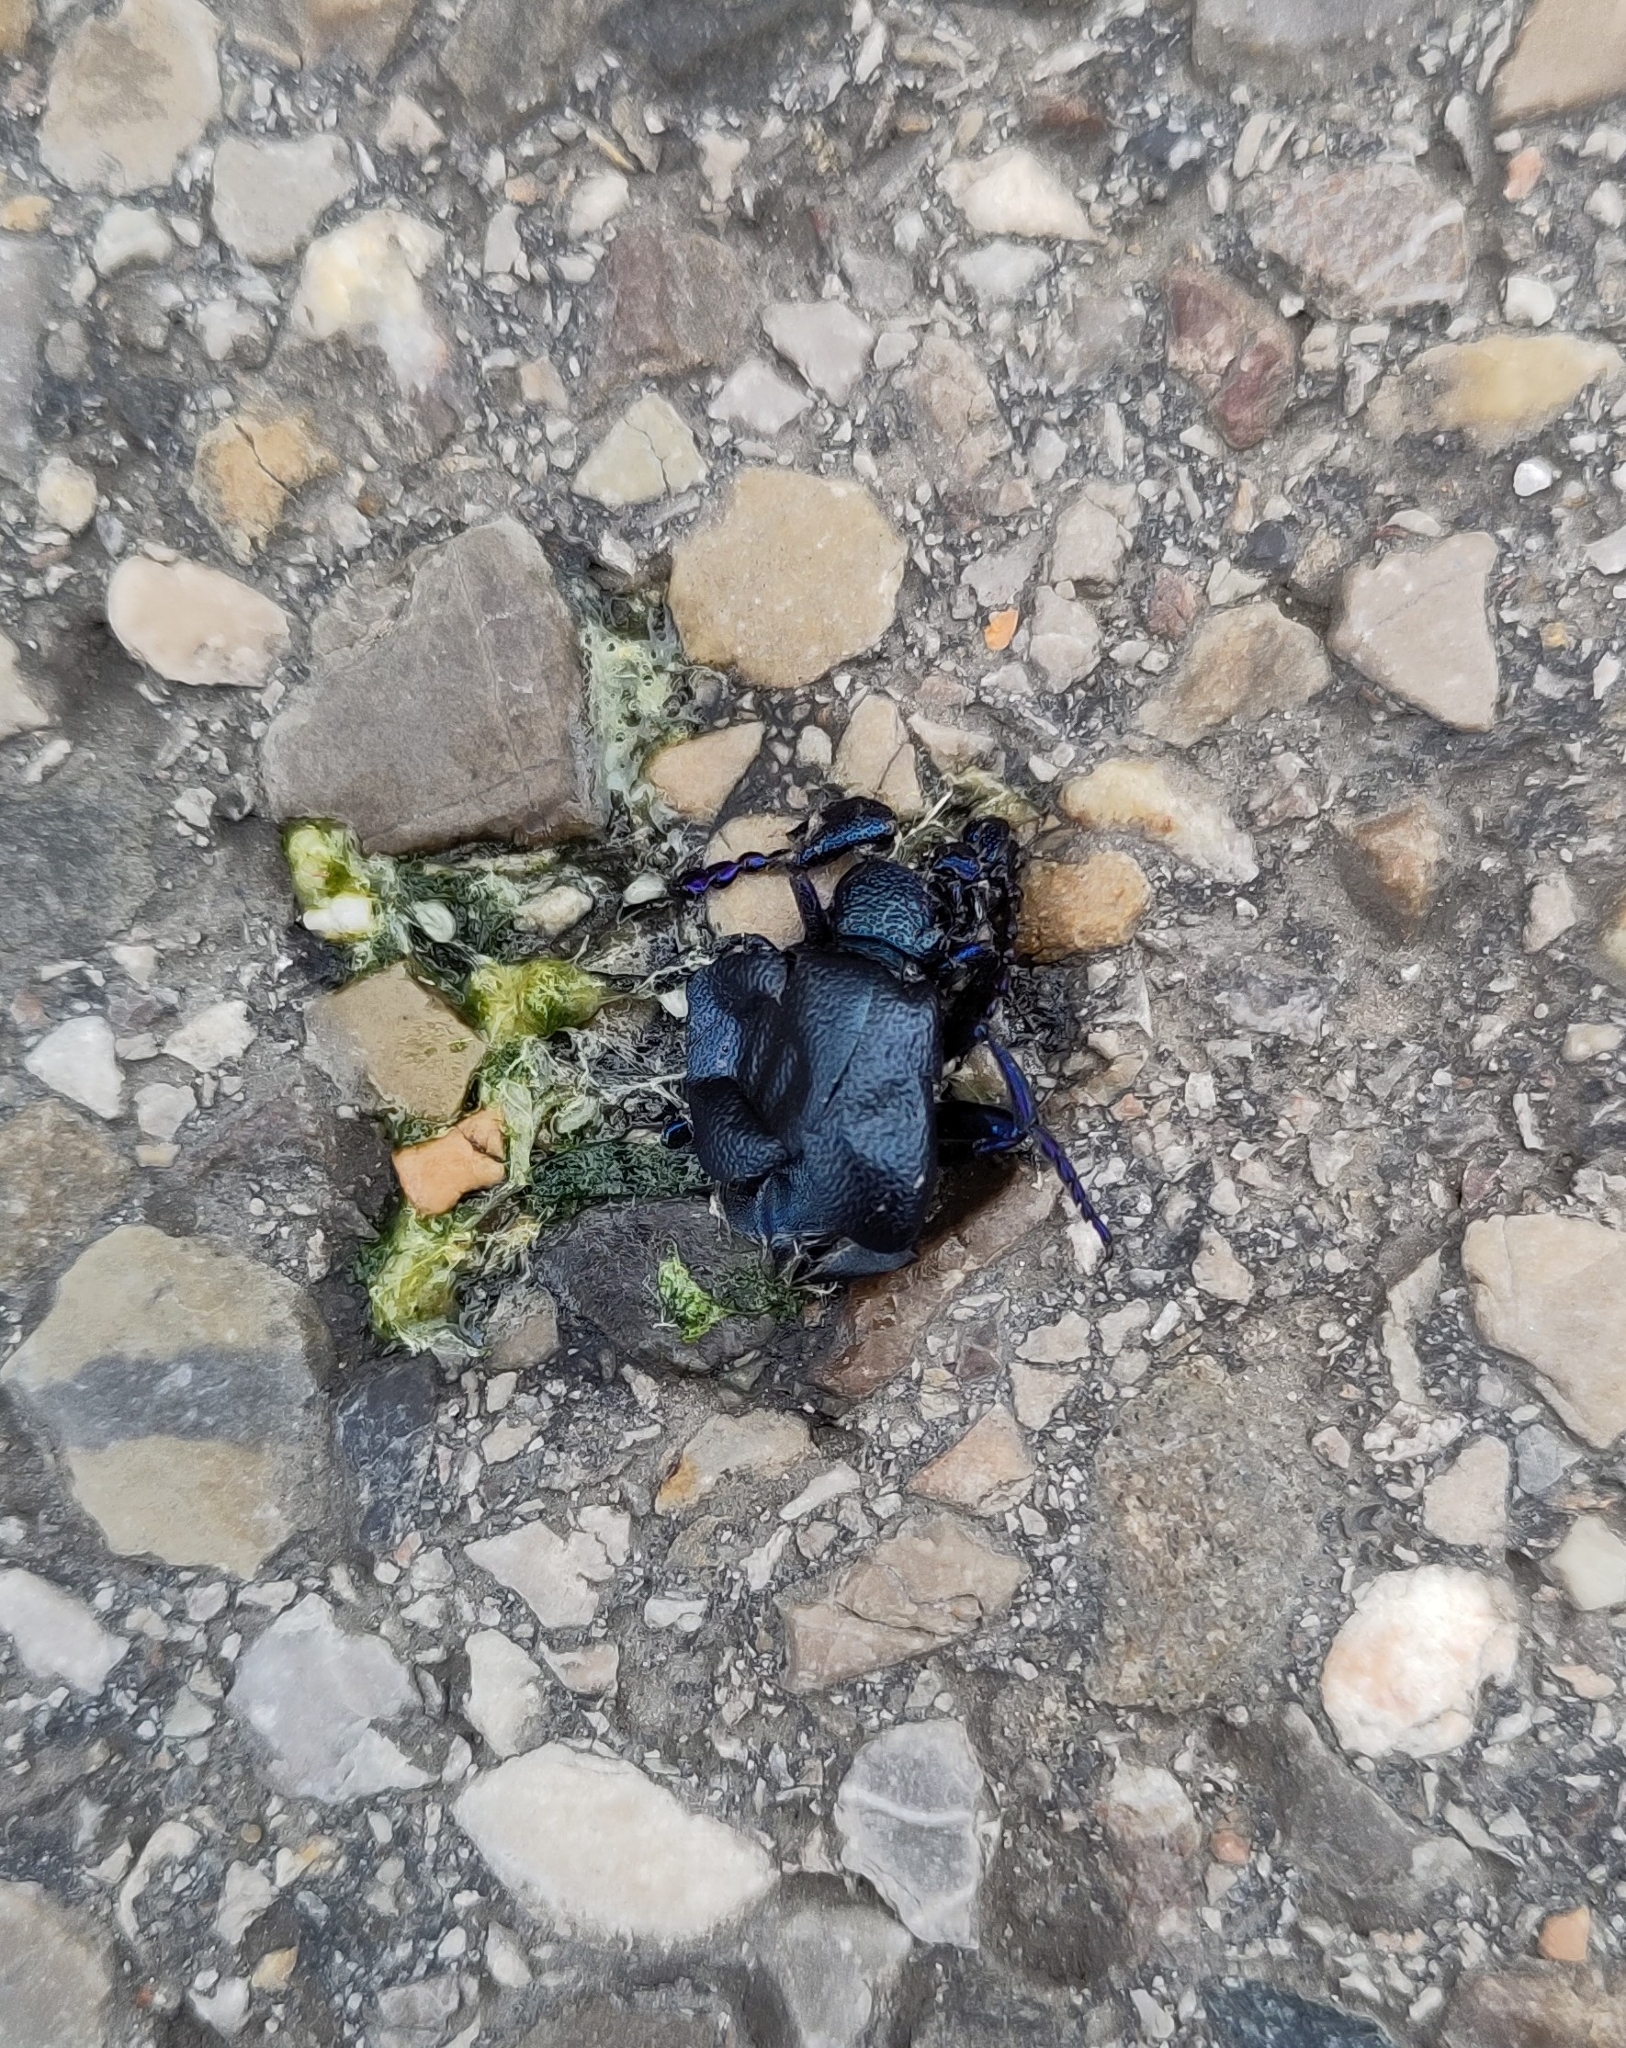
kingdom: Animalia
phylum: Arthropoda
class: Insecta
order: Coleoptera
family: Meloidae
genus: Meloe
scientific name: Meloe proscarabaeus
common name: Black oil-beetle
